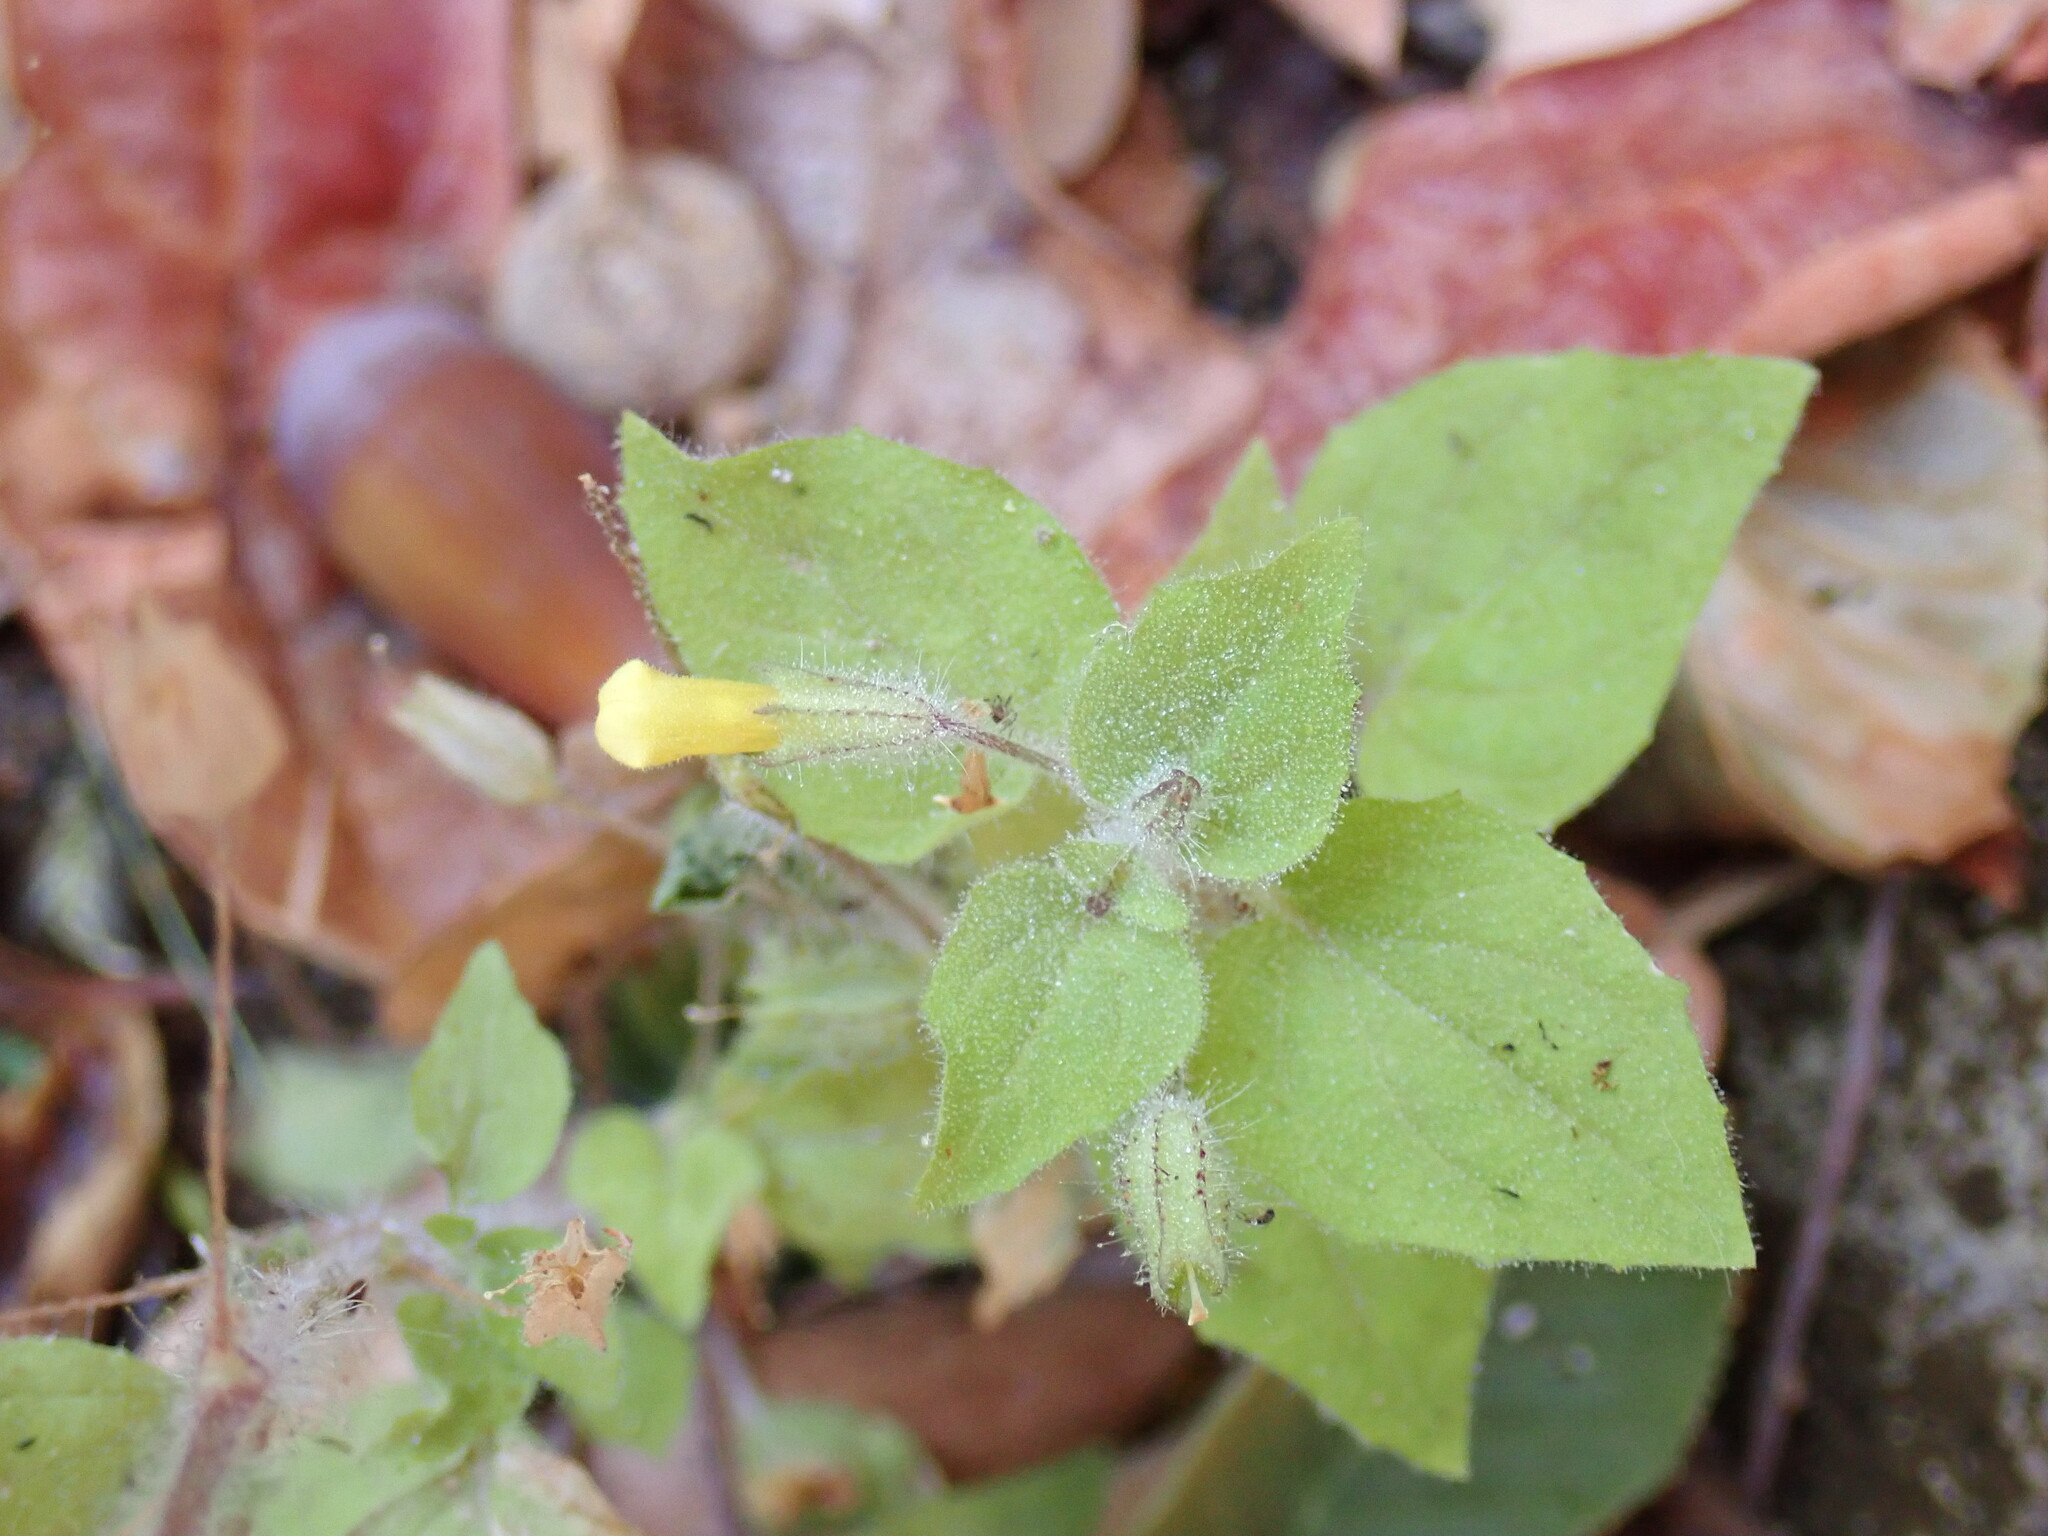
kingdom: Plantae
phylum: Tracheophyta
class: Magnoliopsida
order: Lamiales
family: Phrymaceae
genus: Erythranthe
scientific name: Erythranthe floribunda
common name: Floriferous monkeyflower
